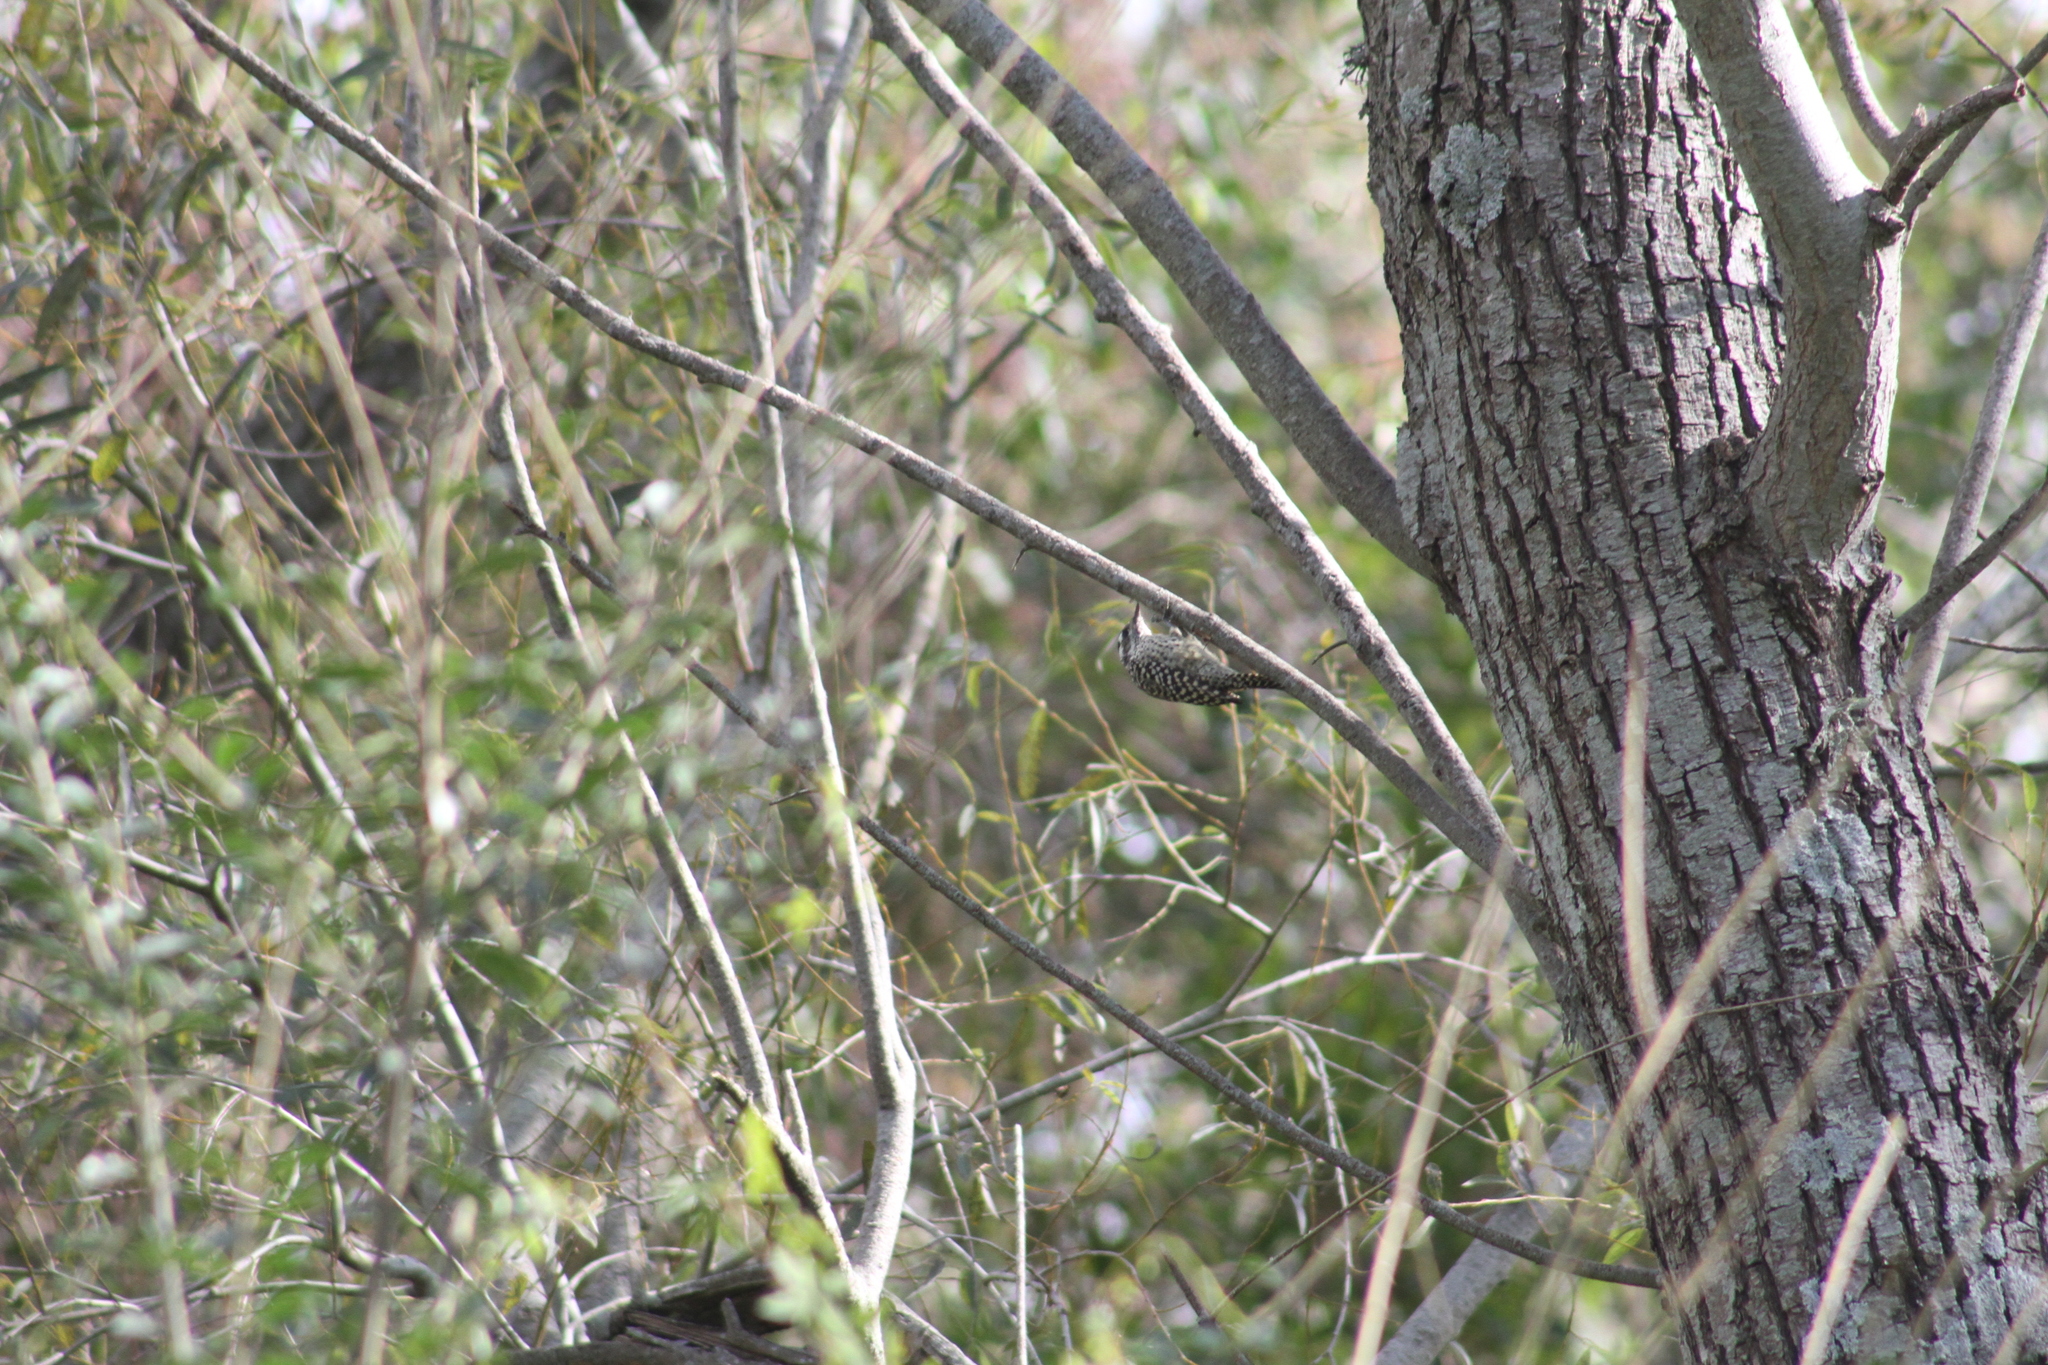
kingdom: Animalia
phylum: Chordata
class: Aves
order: Piciformes
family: Picidae
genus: Veniliornis
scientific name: Veniliornis mixtus
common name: Checkered woodpecker
